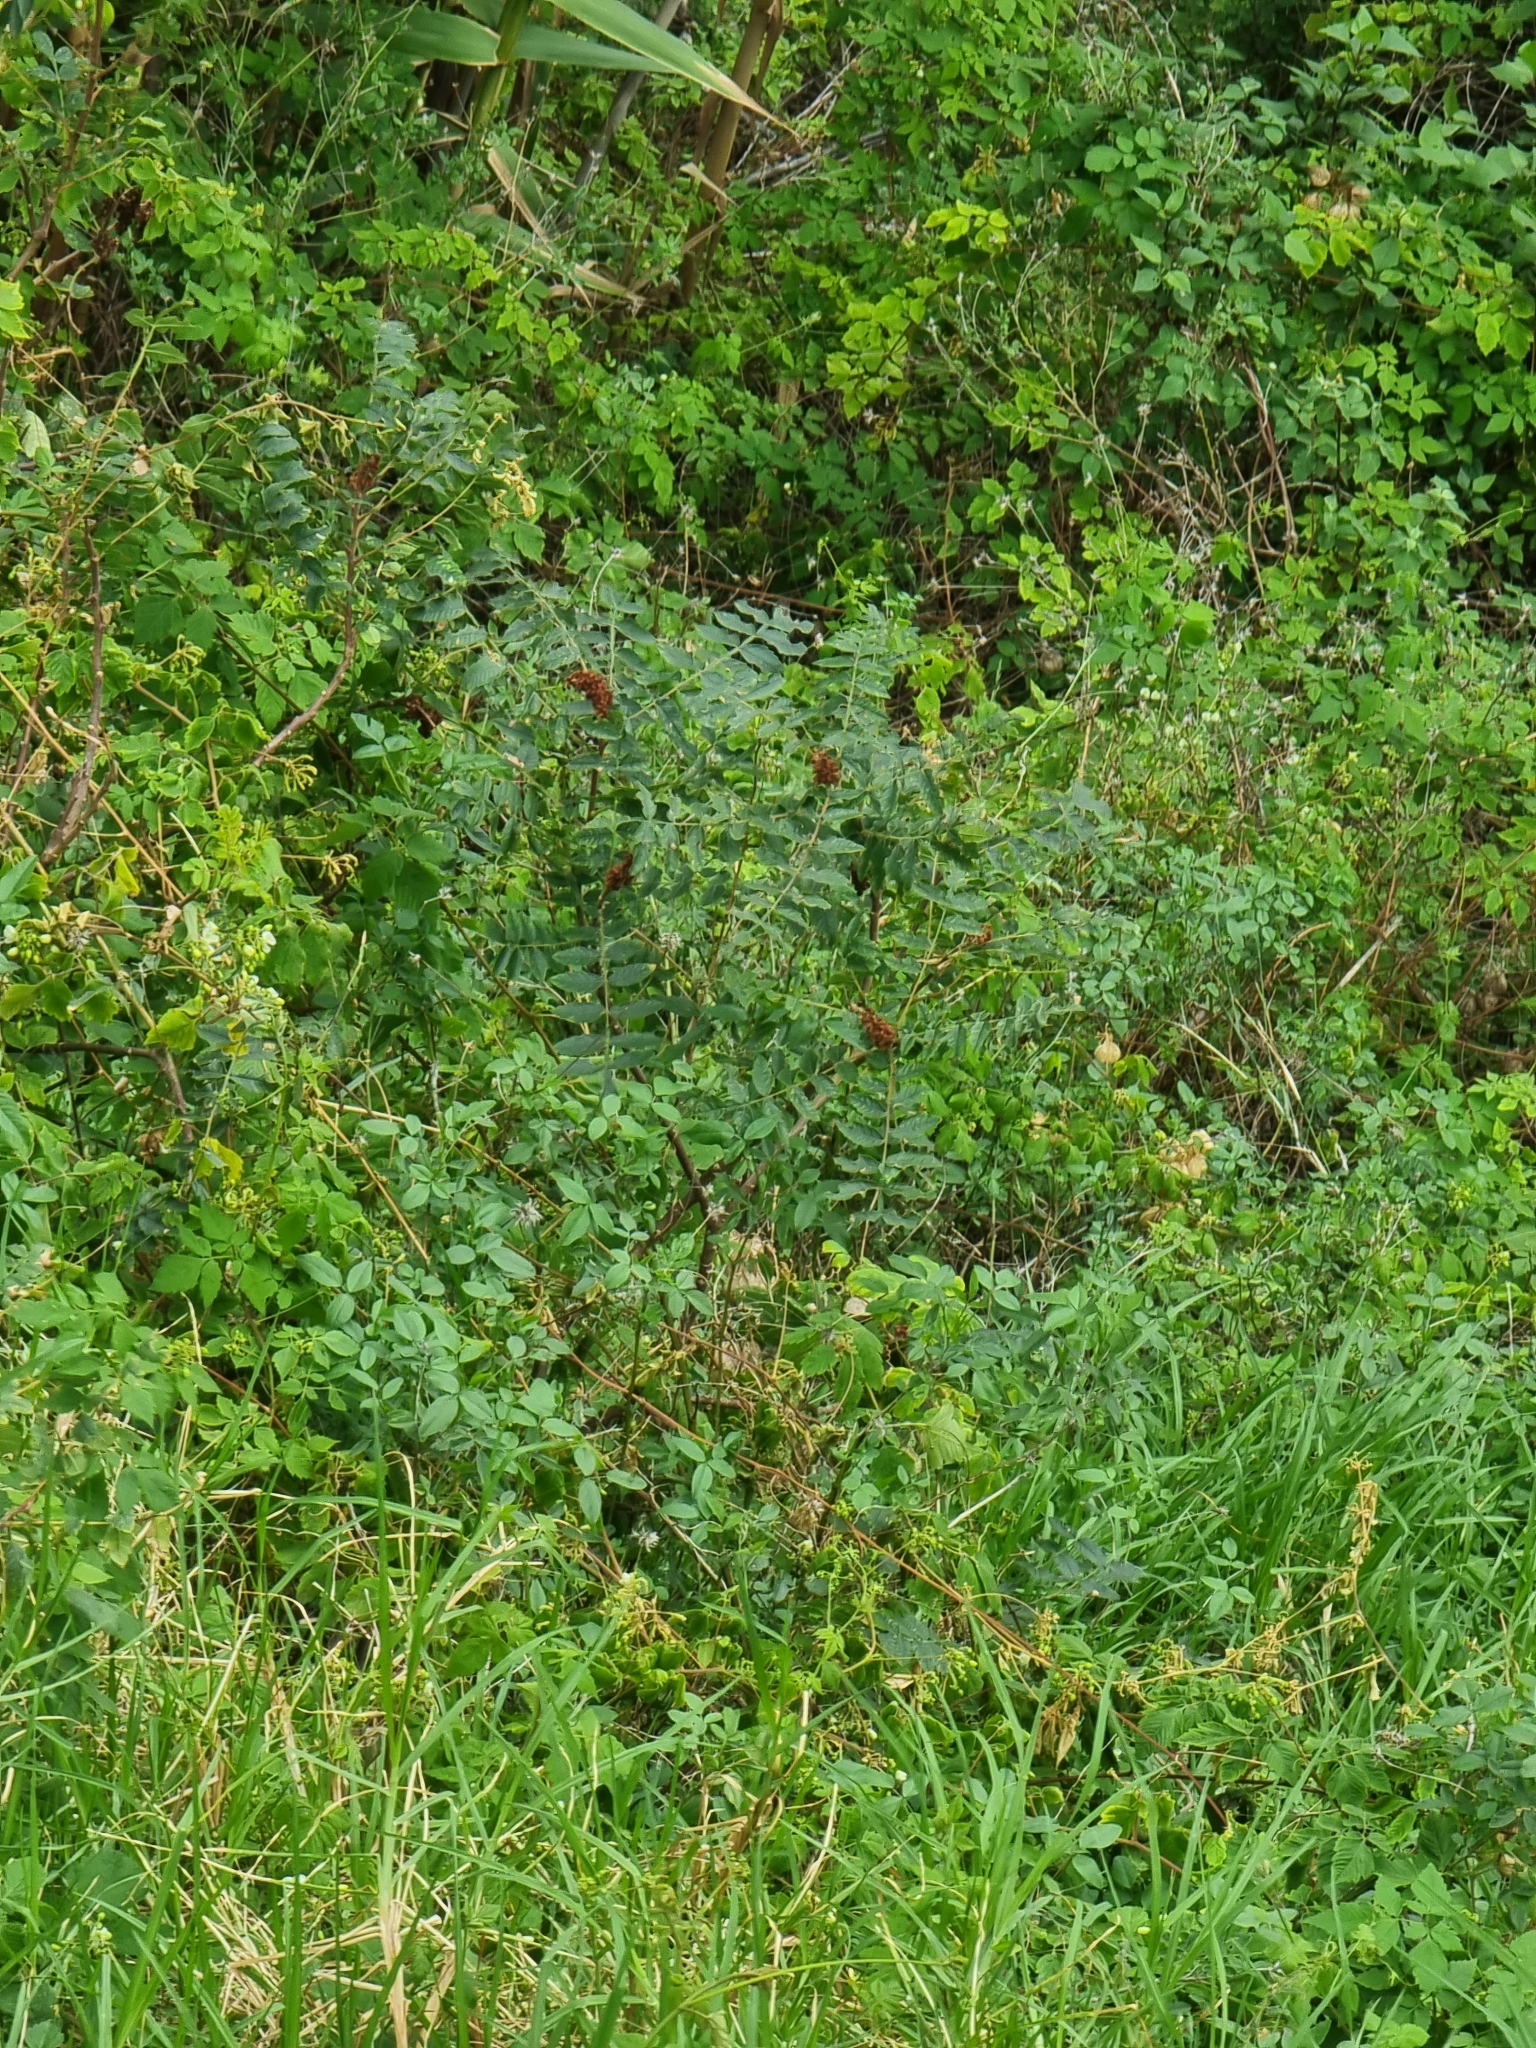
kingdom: Plantae
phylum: Tracheophyta
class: Magnoliopsida
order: Sapindales
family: Anacardiaceae
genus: Rhus
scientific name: Rhus coriaria
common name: Tanner's sumach
